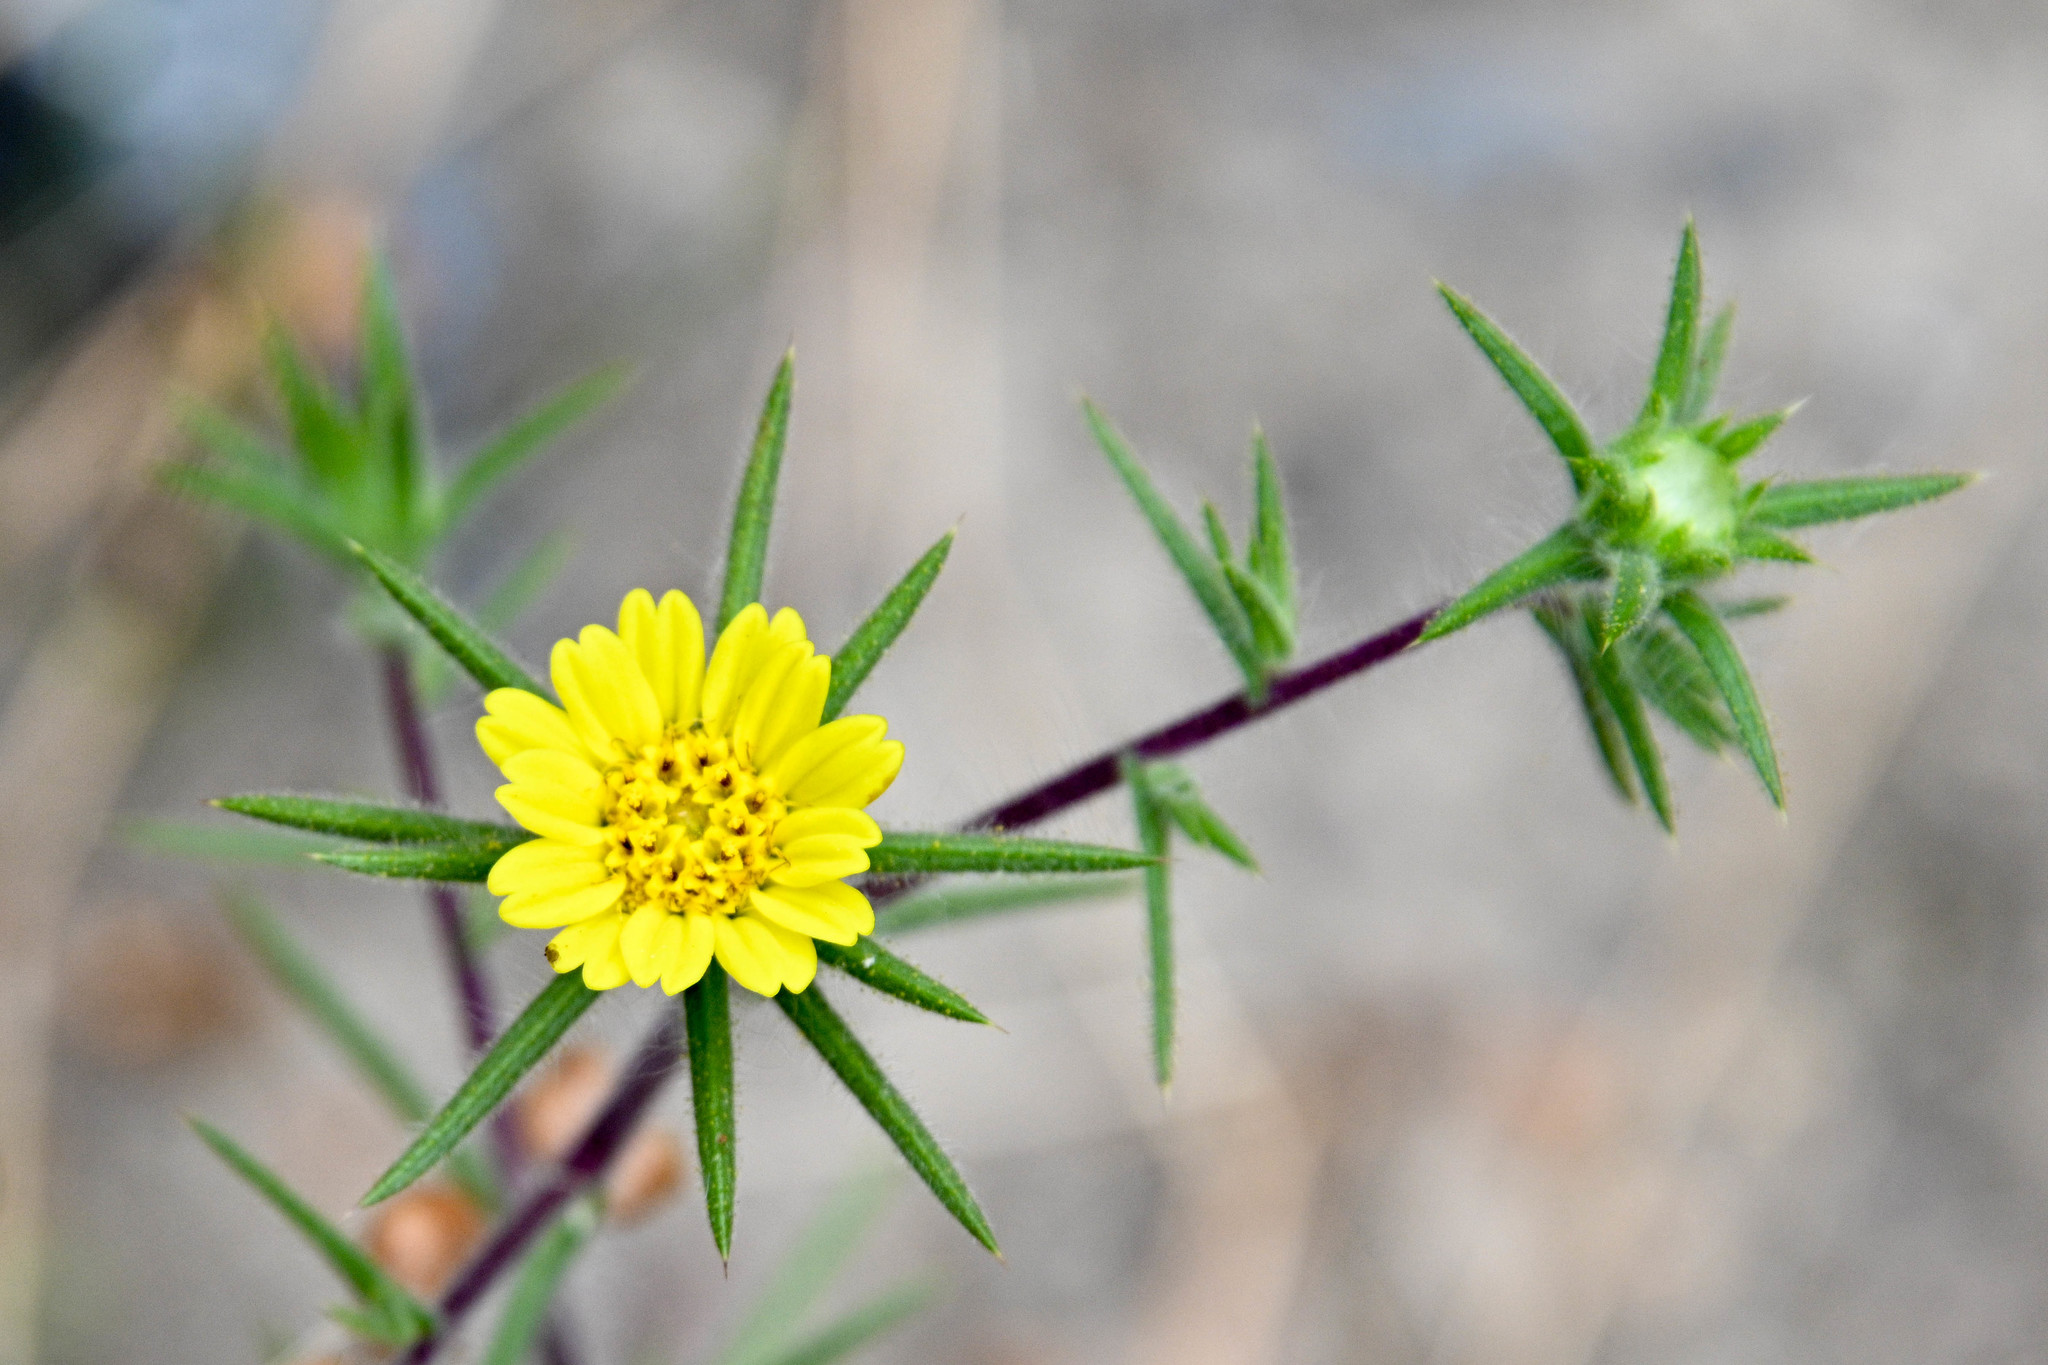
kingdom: Plantae
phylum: Tracheophyta
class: Magnoliopsida
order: Asterales
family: Asteraceae
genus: Centromadia
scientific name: Centromadia fitchii
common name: Fitch's spikeweed
